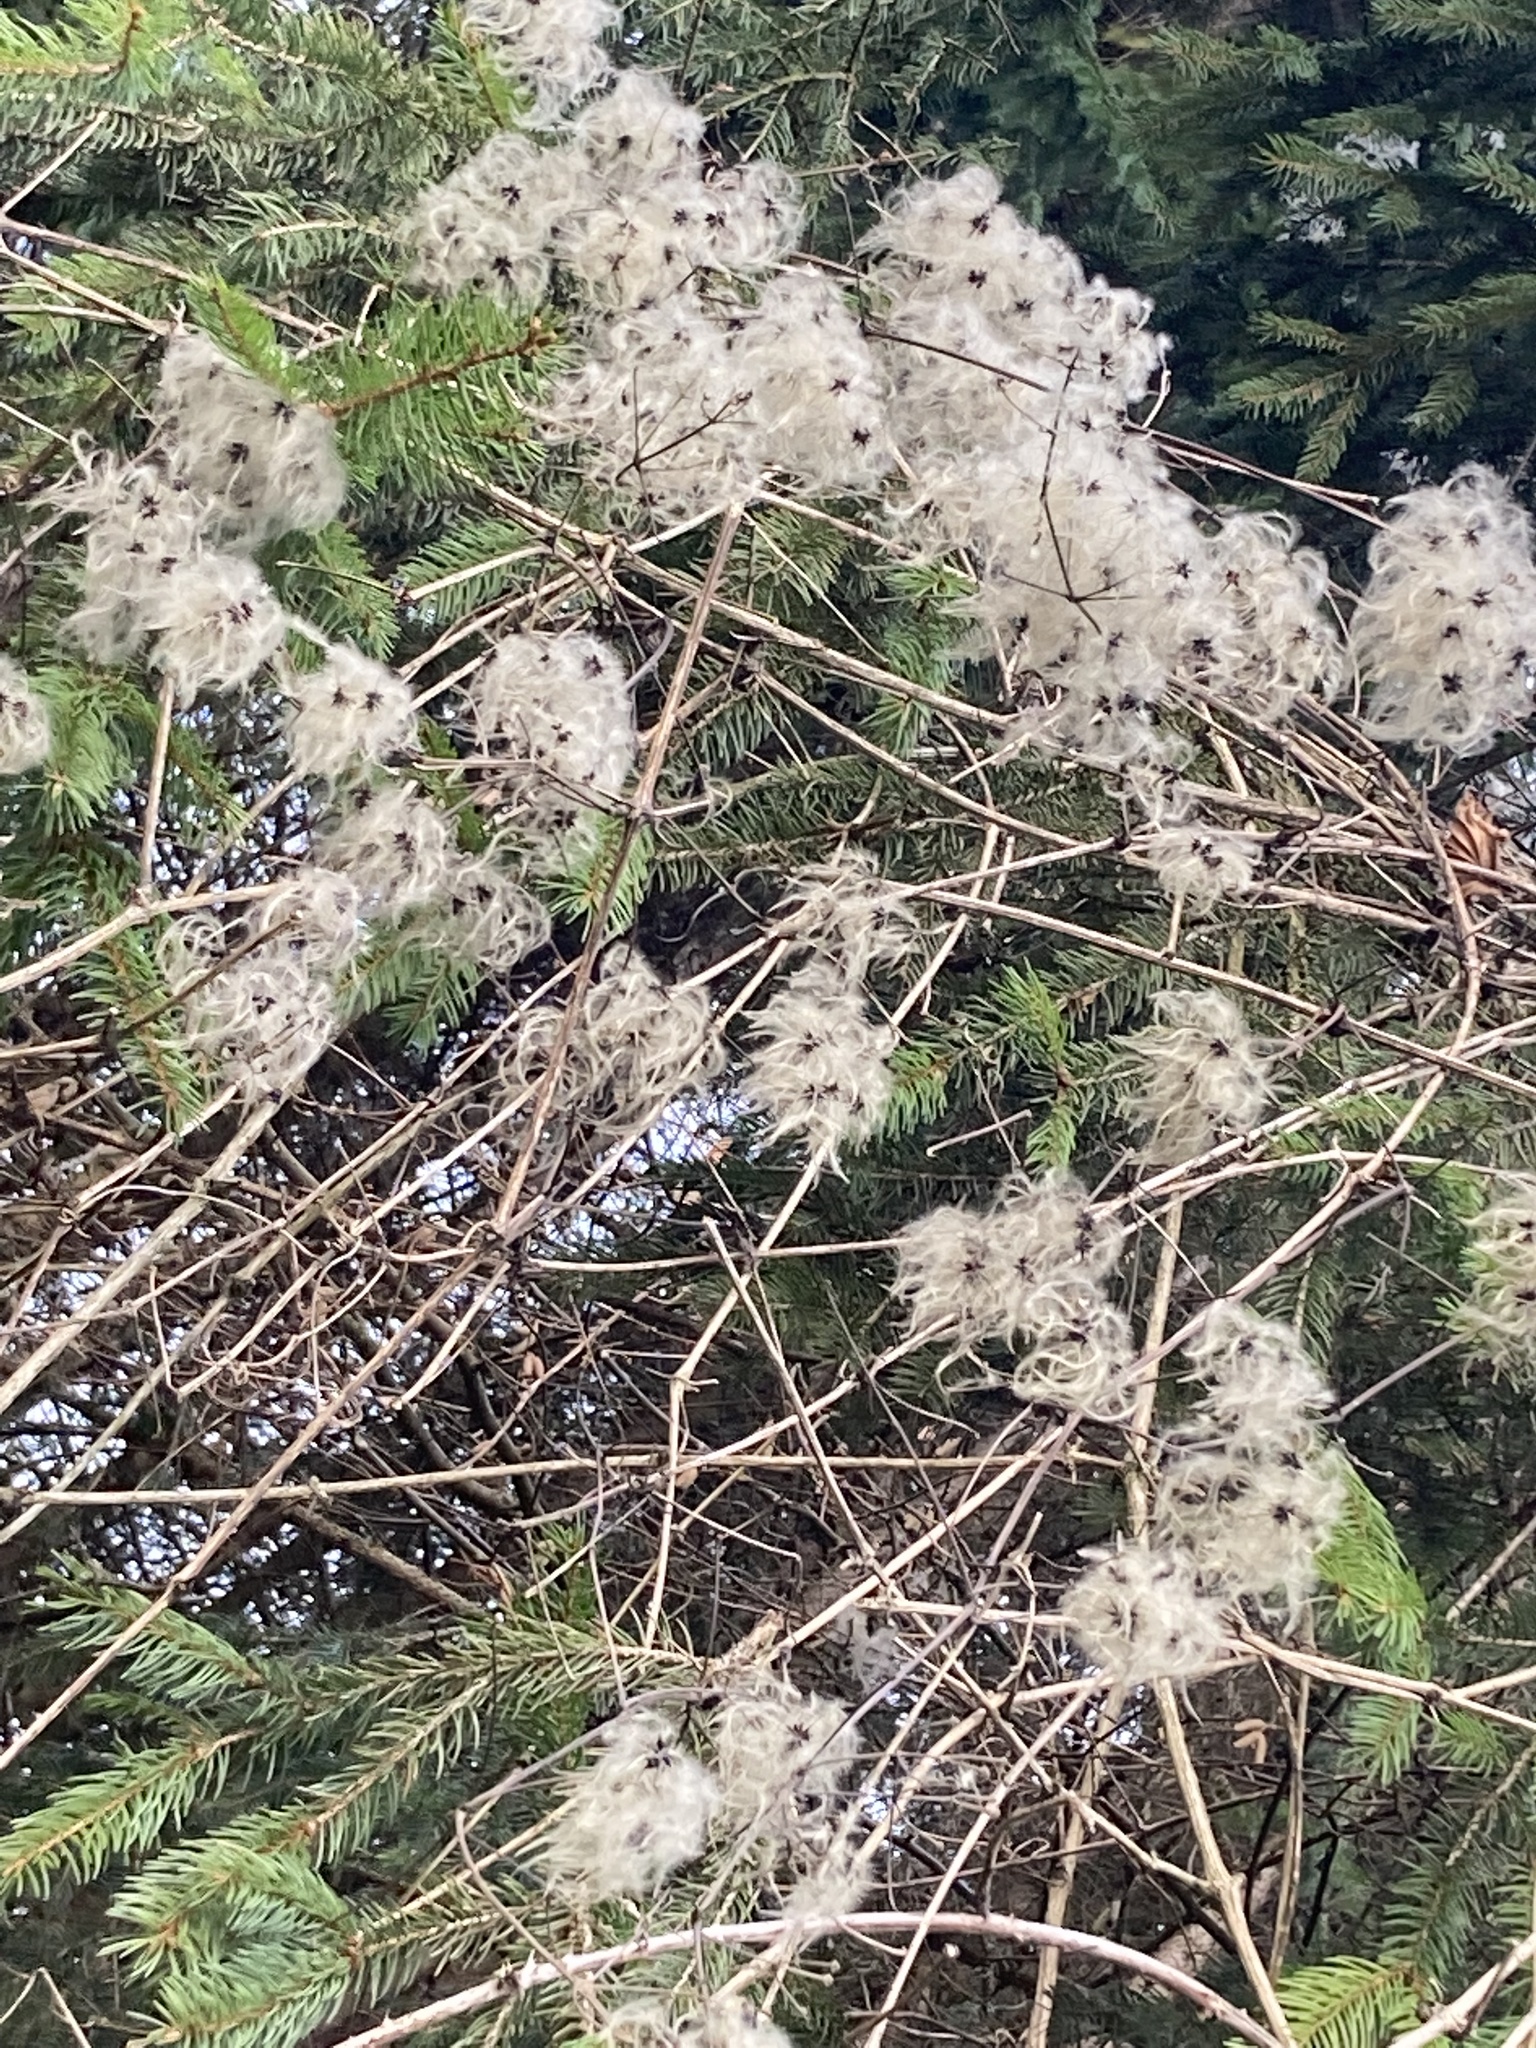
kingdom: Plantae
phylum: Tracheophyta
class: Magnoliopsida
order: Ranunculales
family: Ranunculaceae
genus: Clematis
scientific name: Clematis vitalba
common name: Evergreen clematis
